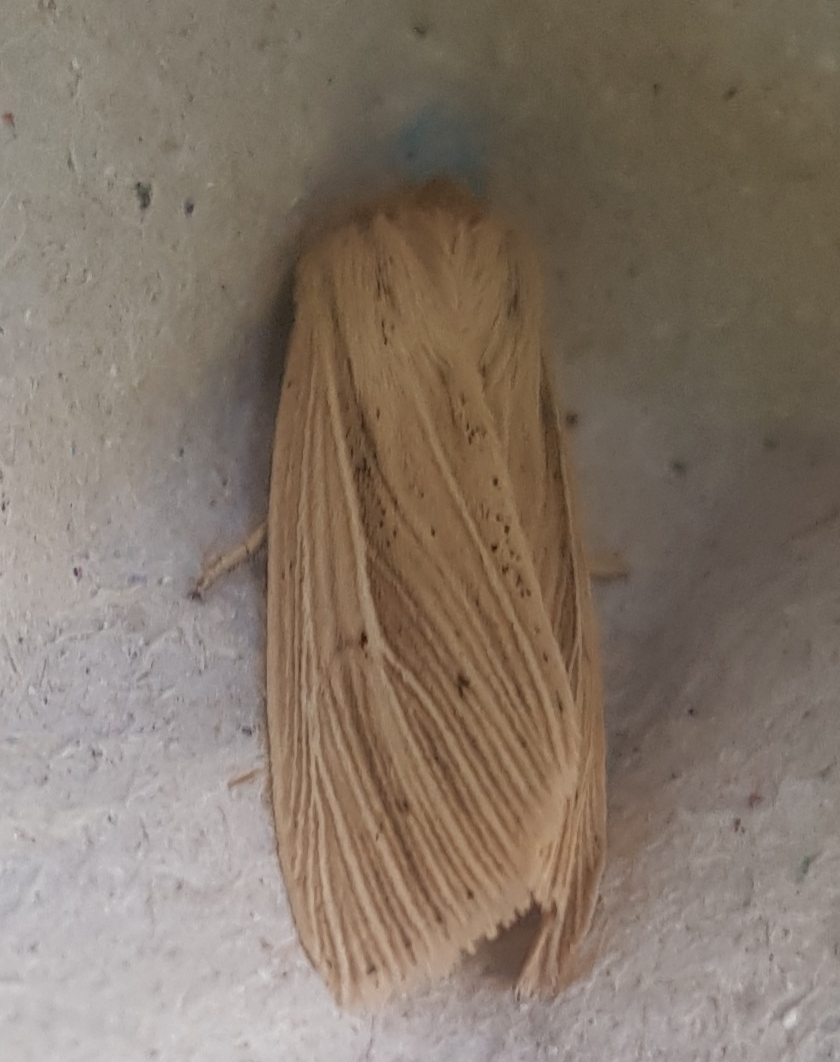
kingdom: Animalia
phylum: Arthropoda
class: Insecta
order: Lepidoptera
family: Noctuidae
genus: Mythimna
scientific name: Mythimna impura
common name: Smoky wainscot
